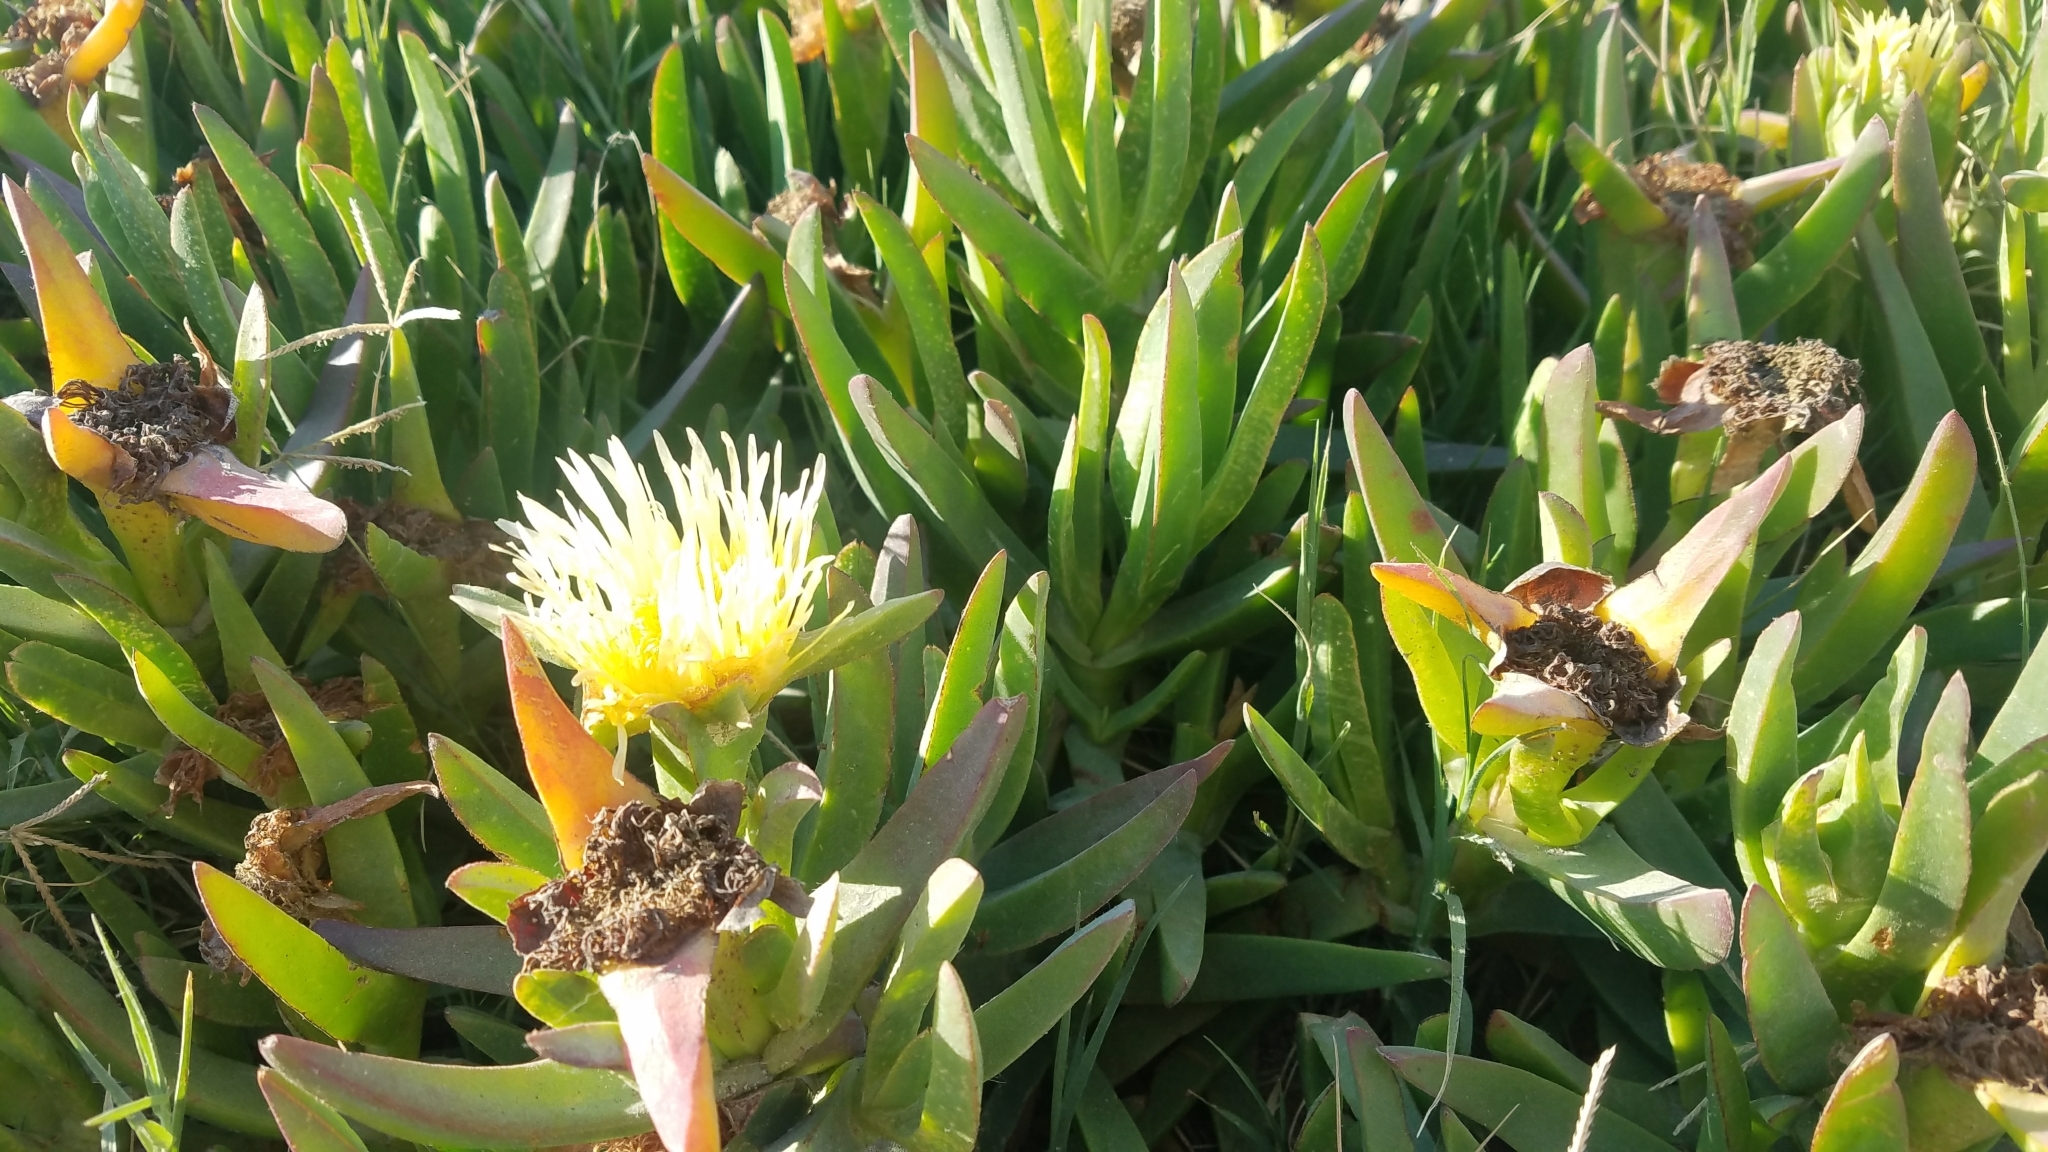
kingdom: Plantae
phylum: Tracheophyta
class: Magnoliopsida
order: Caryophyllales
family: Aizoaceae
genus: Carpobrotus
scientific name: Carpobrotus edulis
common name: Hottentot-fig
